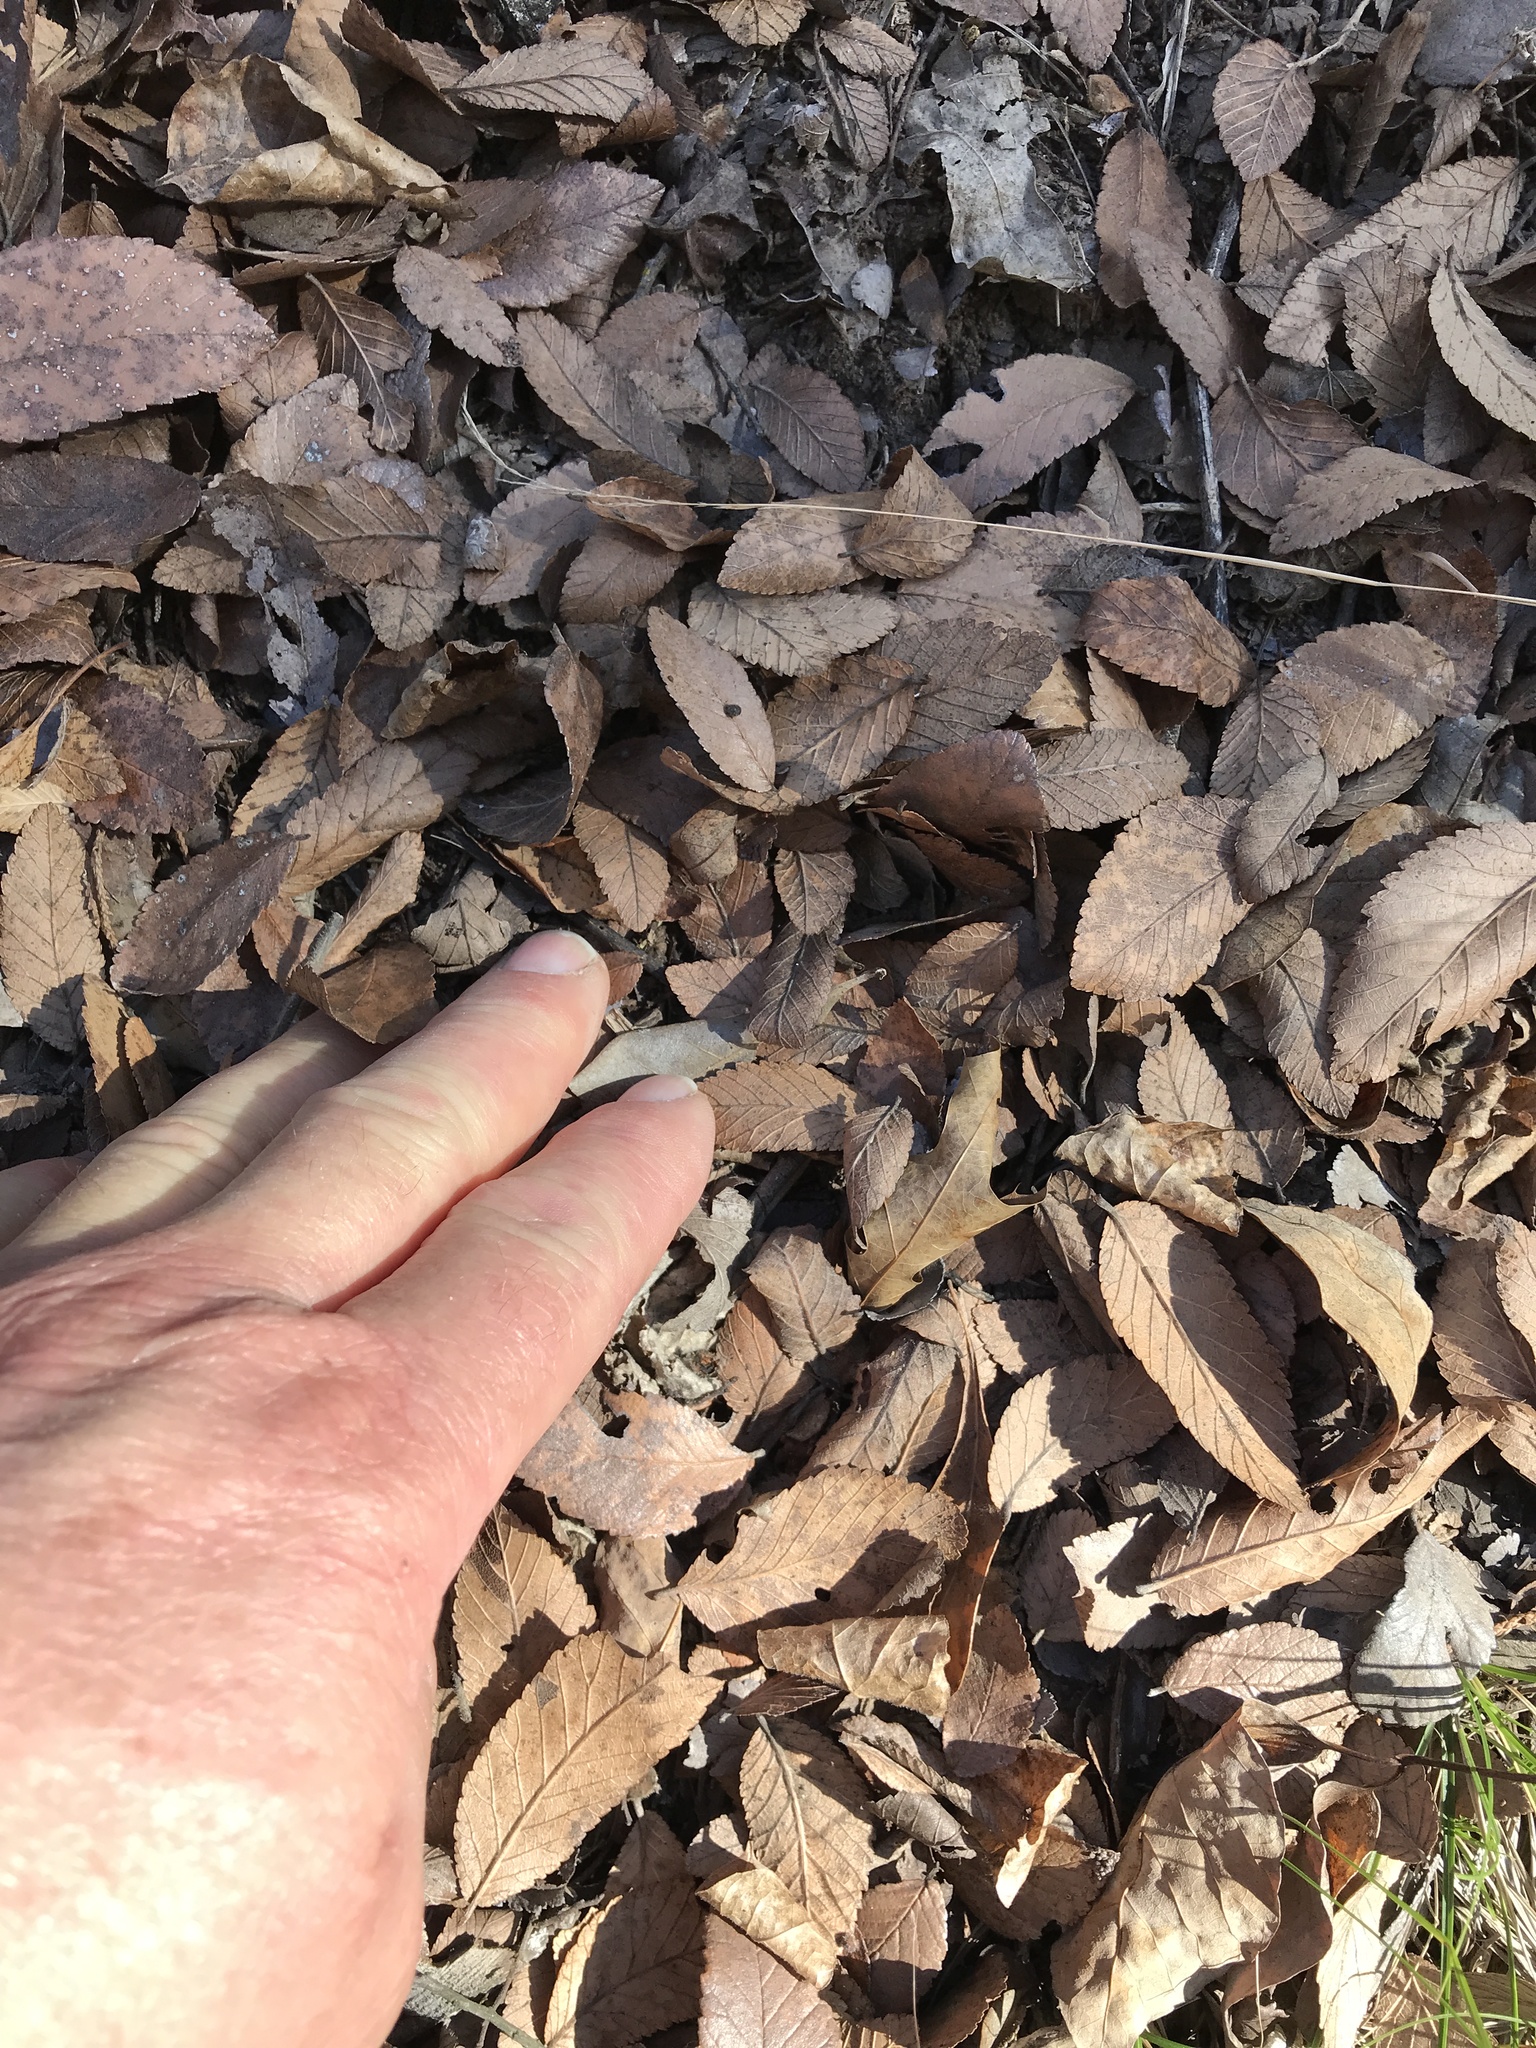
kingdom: Plantae
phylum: Tracheophyta
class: Magnoliopsida
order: Rosales
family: Ulmaceae
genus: Ulmus
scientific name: Ulmus crassifolia
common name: Basket elm
